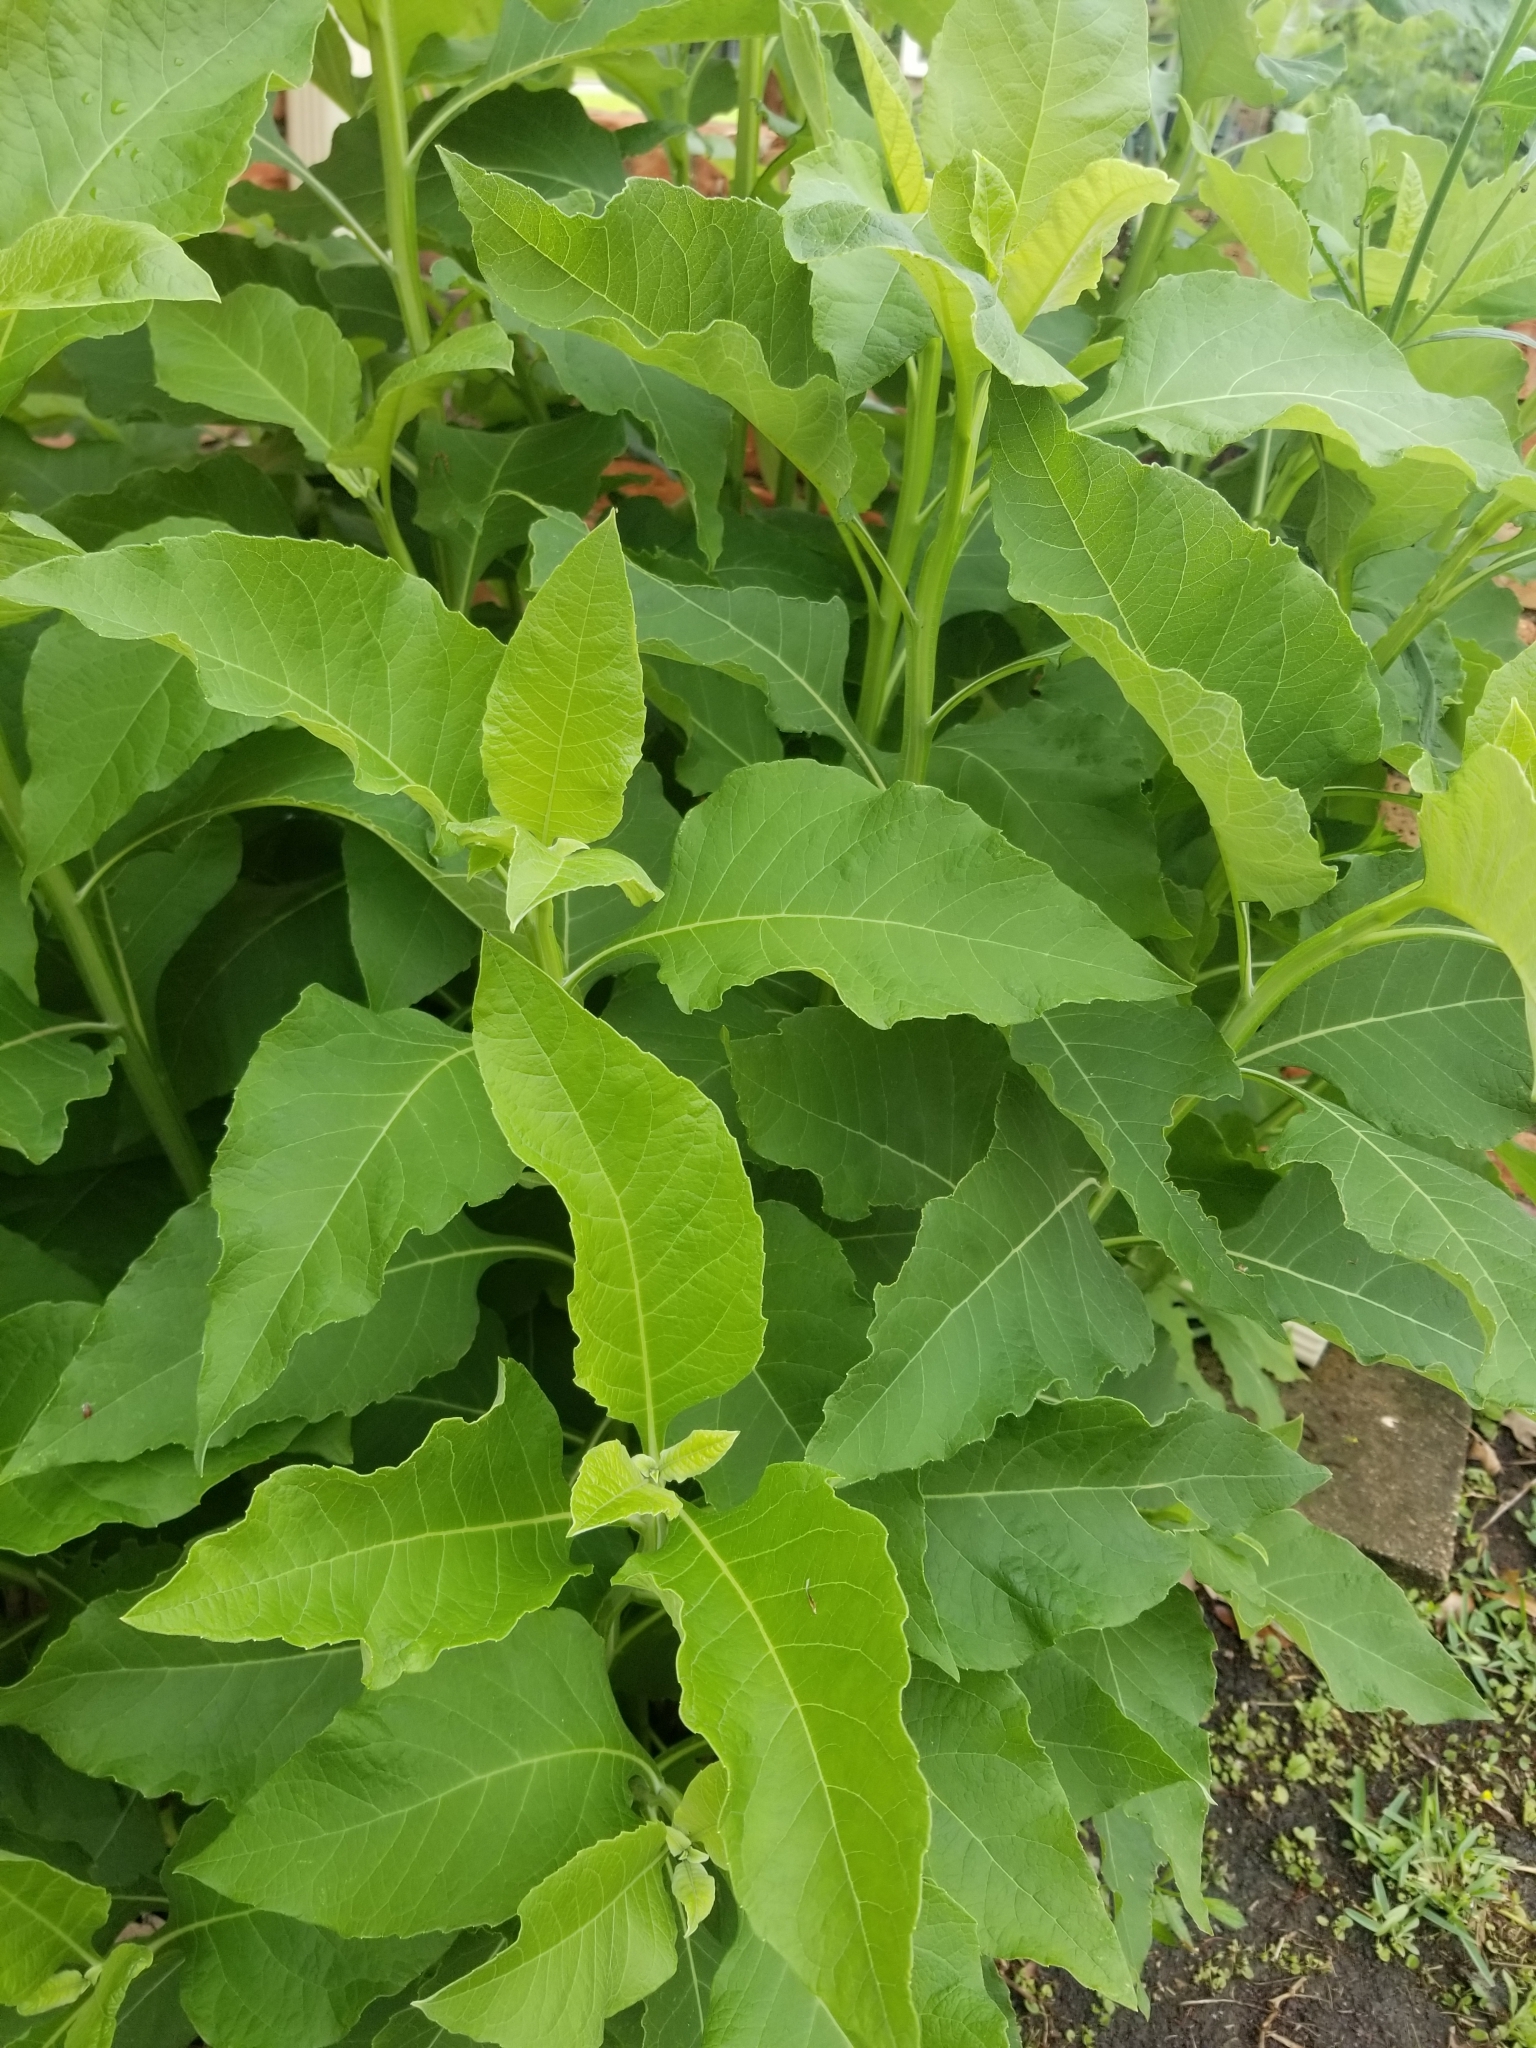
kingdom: Plantae
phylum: Tracheophyta
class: Magnoliopsida
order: Asterales
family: Asteraceae
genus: Verbesina
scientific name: Verbesina virginica
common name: Frostweed
